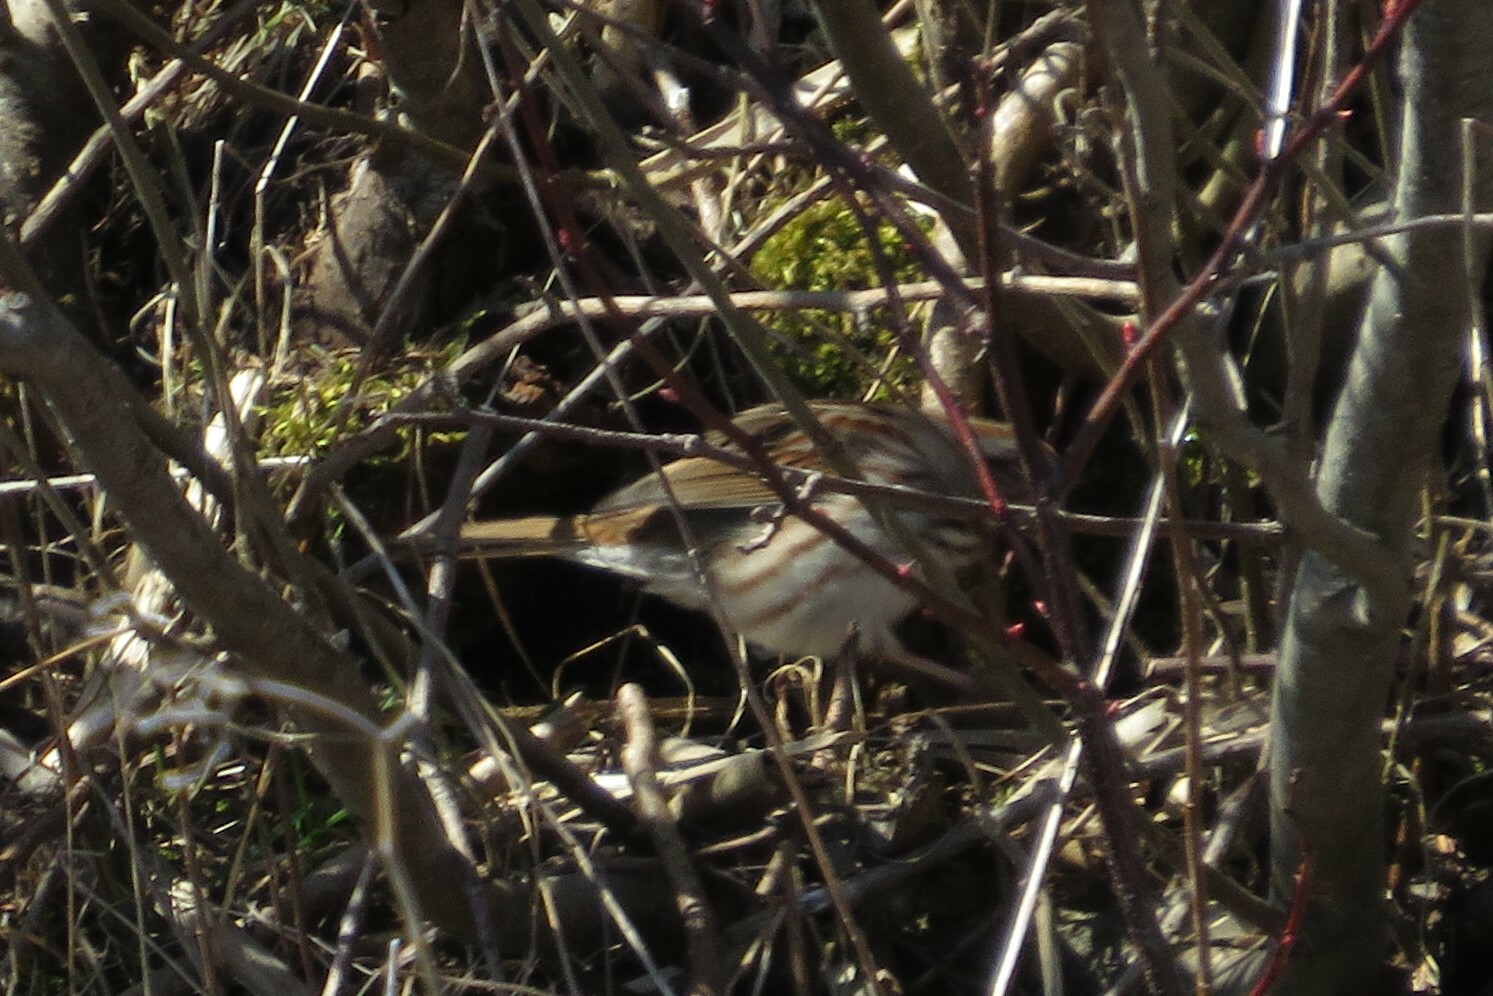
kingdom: Animalia
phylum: Chordata
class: Aves
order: Passeriformes
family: Passerellidae
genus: Melospiza
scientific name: Melospiza melodia
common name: Song sparrow
